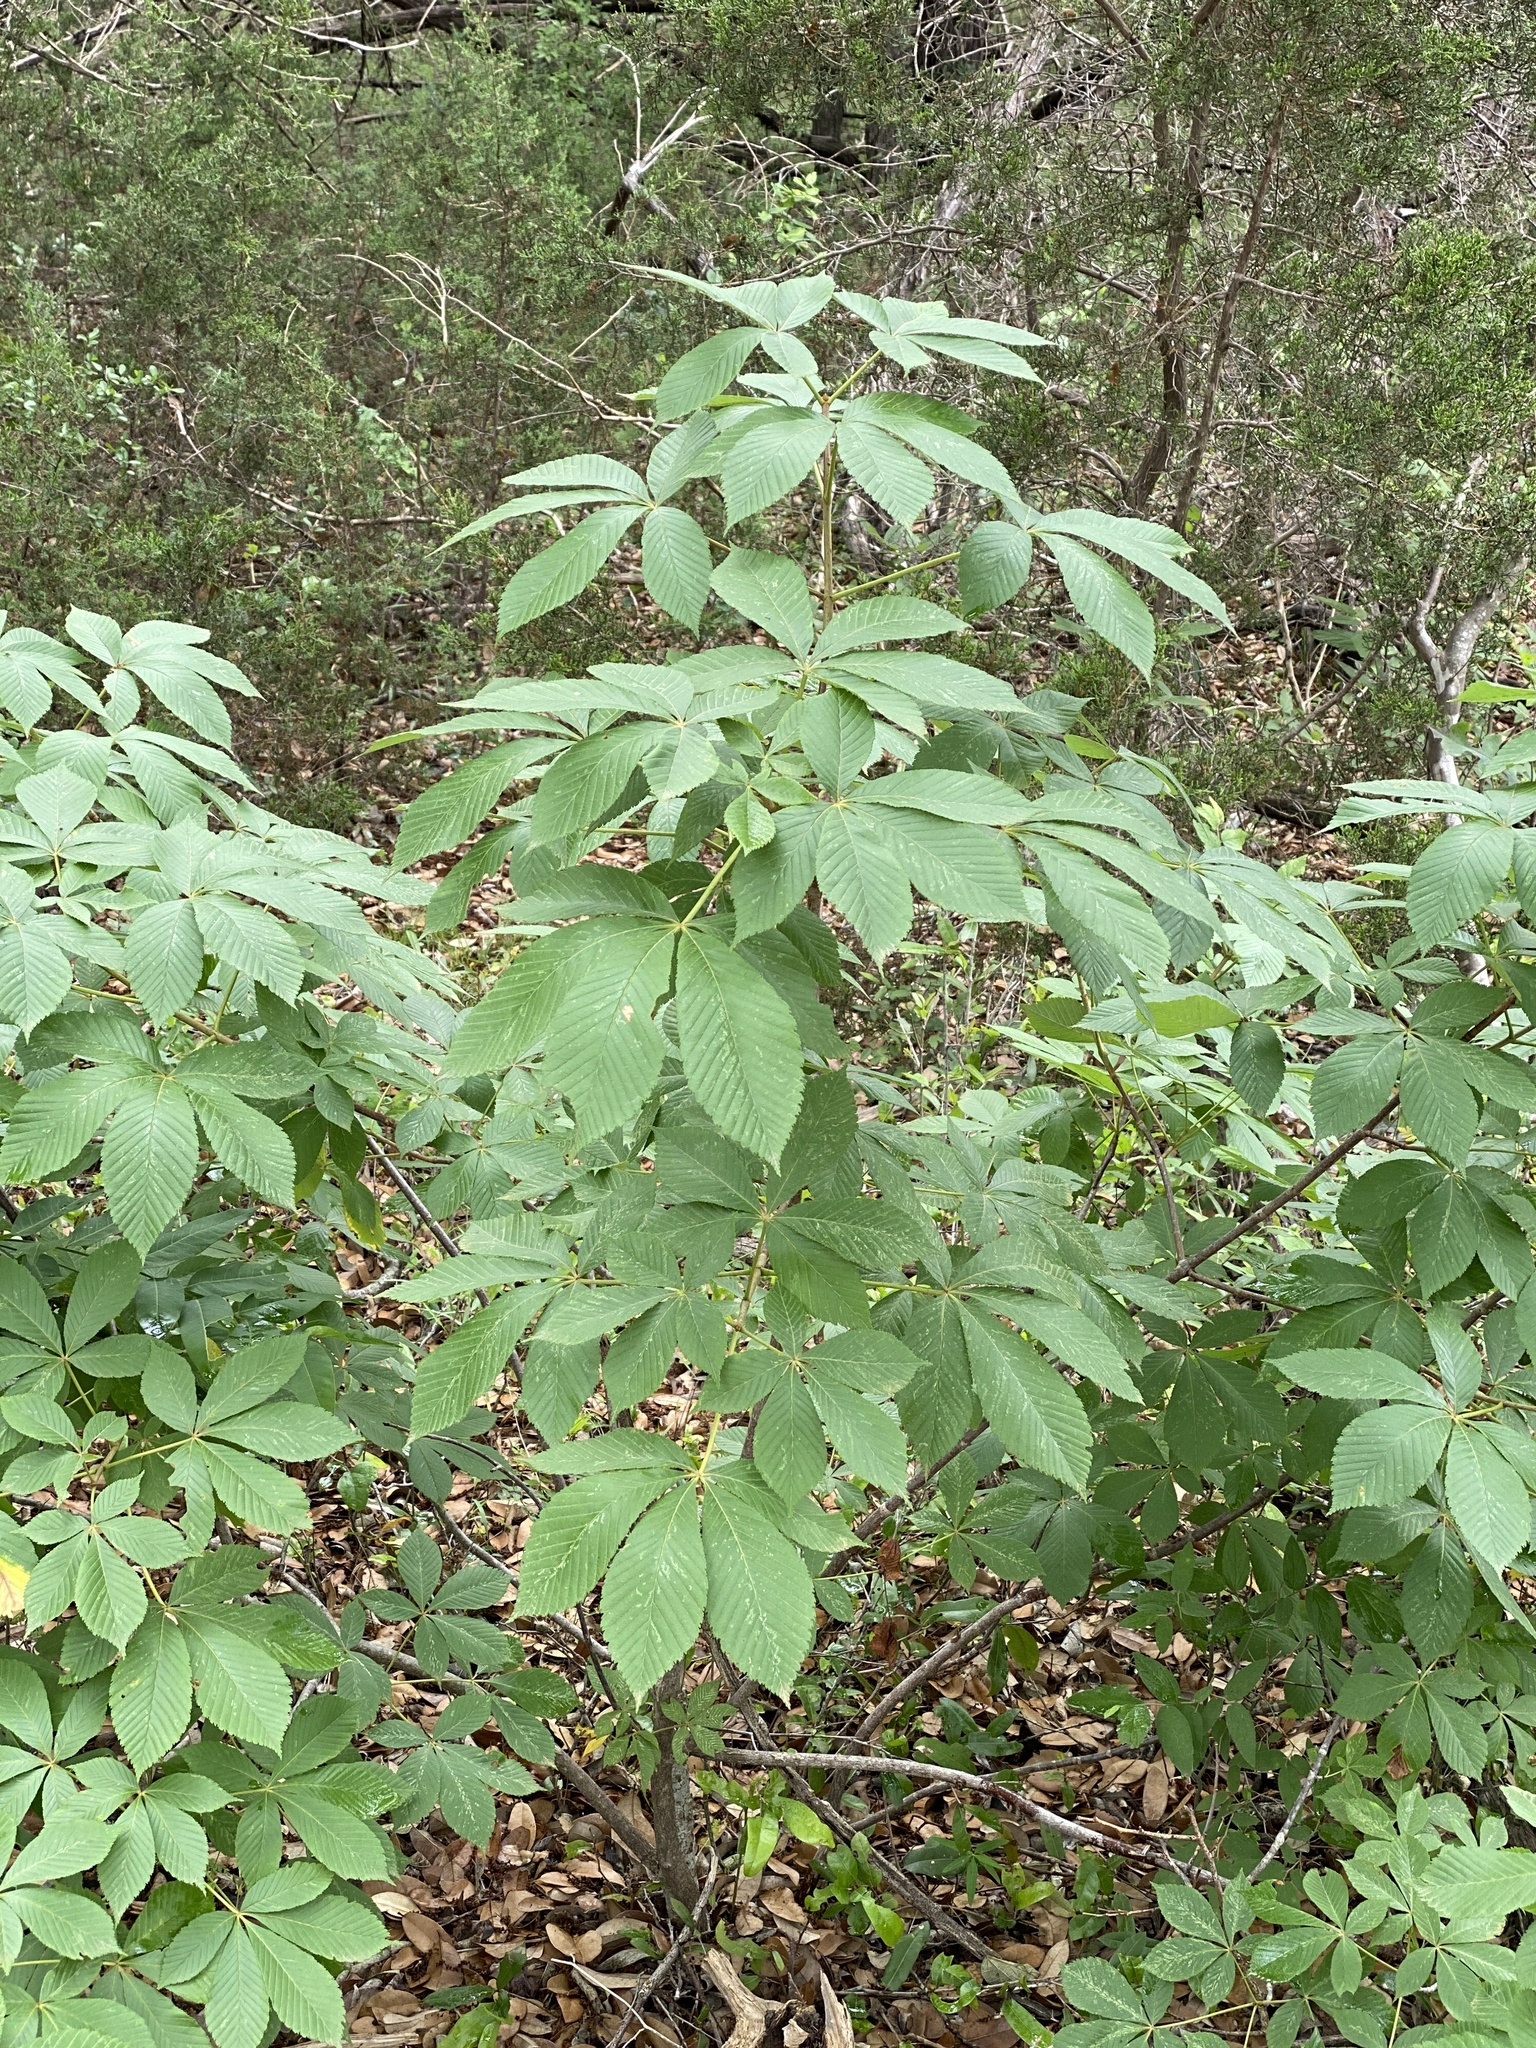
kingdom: Plantae
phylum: Tracheophyta
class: Magnoliopsida
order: Sapindales
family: Sapindaceae
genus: Aesculus
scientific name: Aesculus pavia
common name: Red buckeye
